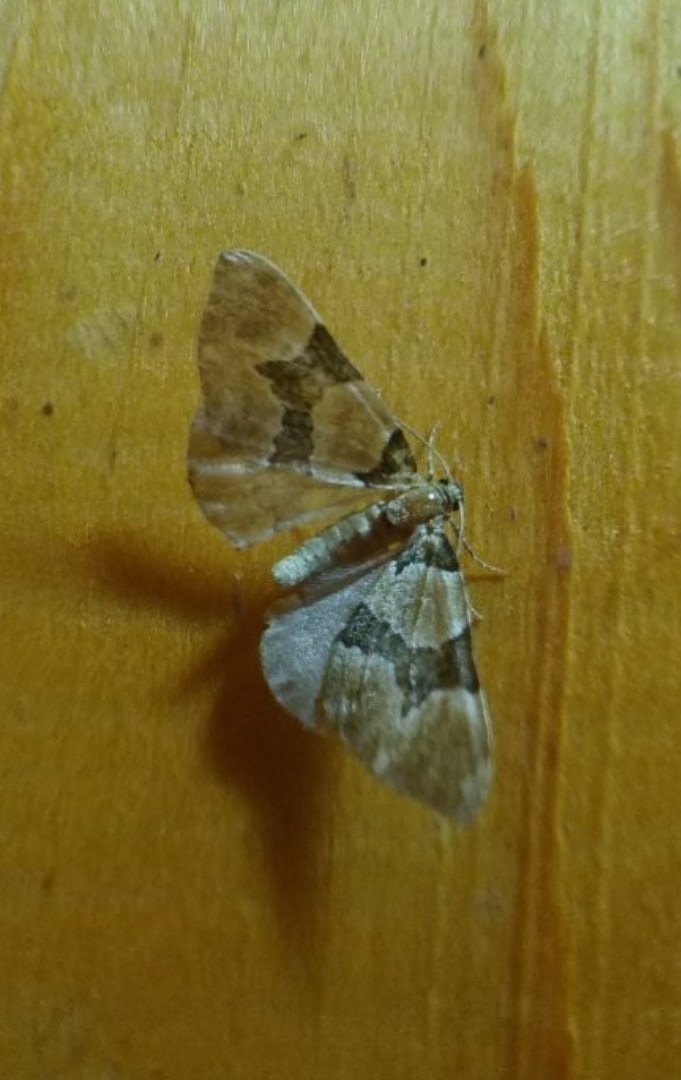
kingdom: Animalia
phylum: Arthropoda
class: Insecta
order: Lepidoptera
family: Geometridae
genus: Perizoma
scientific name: Perizoma sagittata
